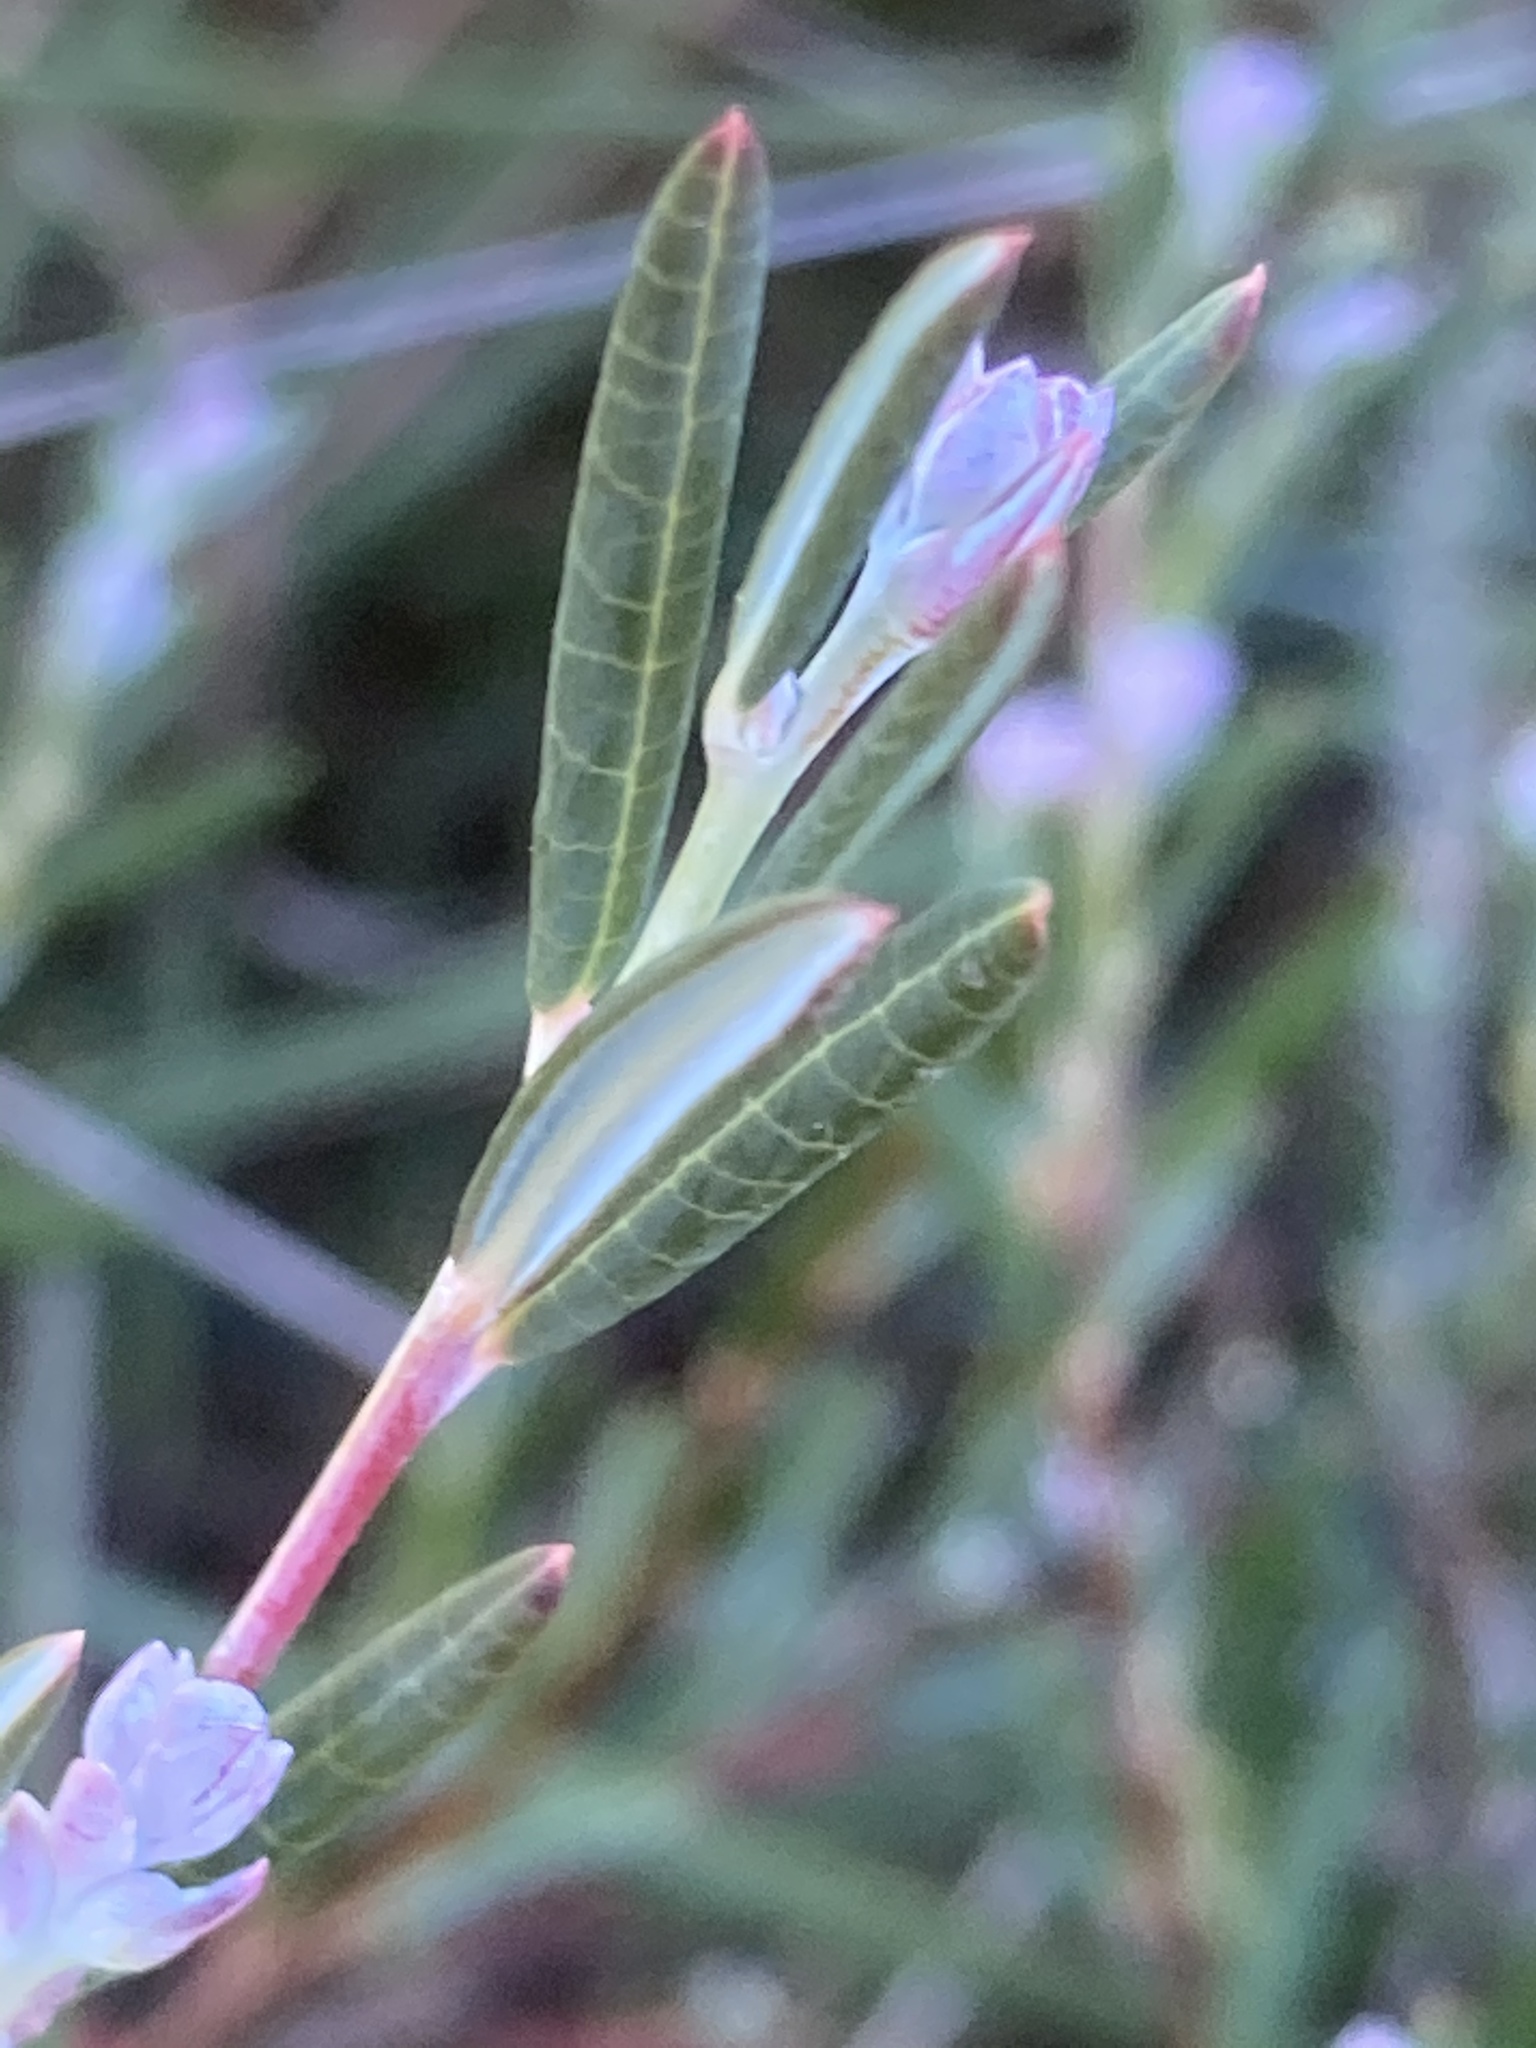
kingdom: Plantae
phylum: Tracheophyta
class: Magnoliopsida
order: Ericales
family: Ericaceae
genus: Andromeda
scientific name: Andromeda polifolia
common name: Bog-rosemary
